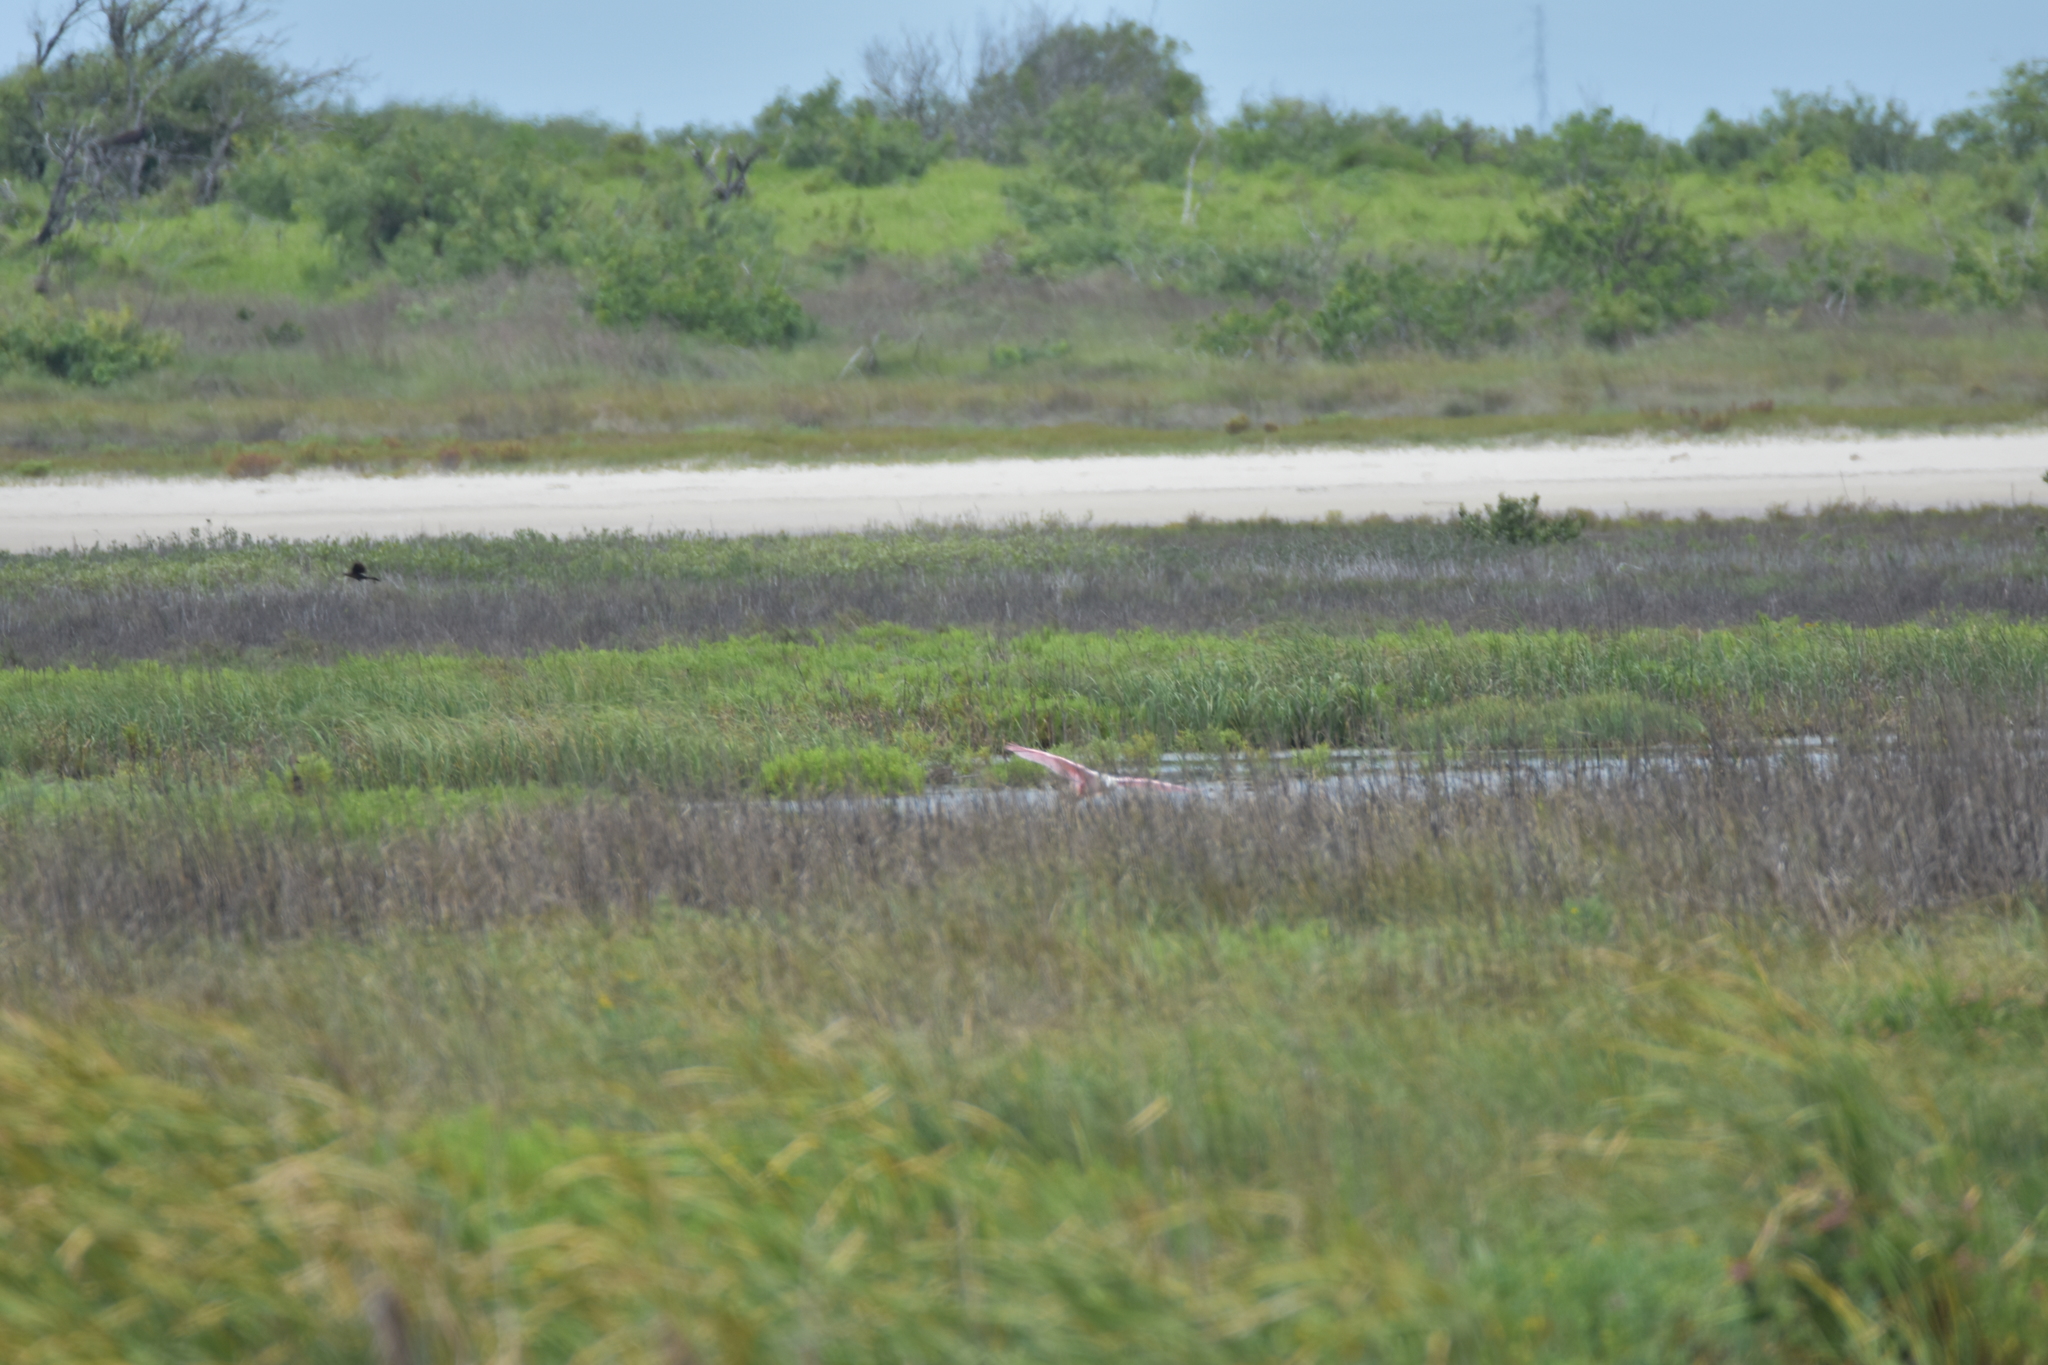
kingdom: Animalia
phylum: Chordata
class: Aves
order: Pelecaniformes
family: Threskiornithidae
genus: Platalea
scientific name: Platalea ajaja
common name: Roseate spoonbill
